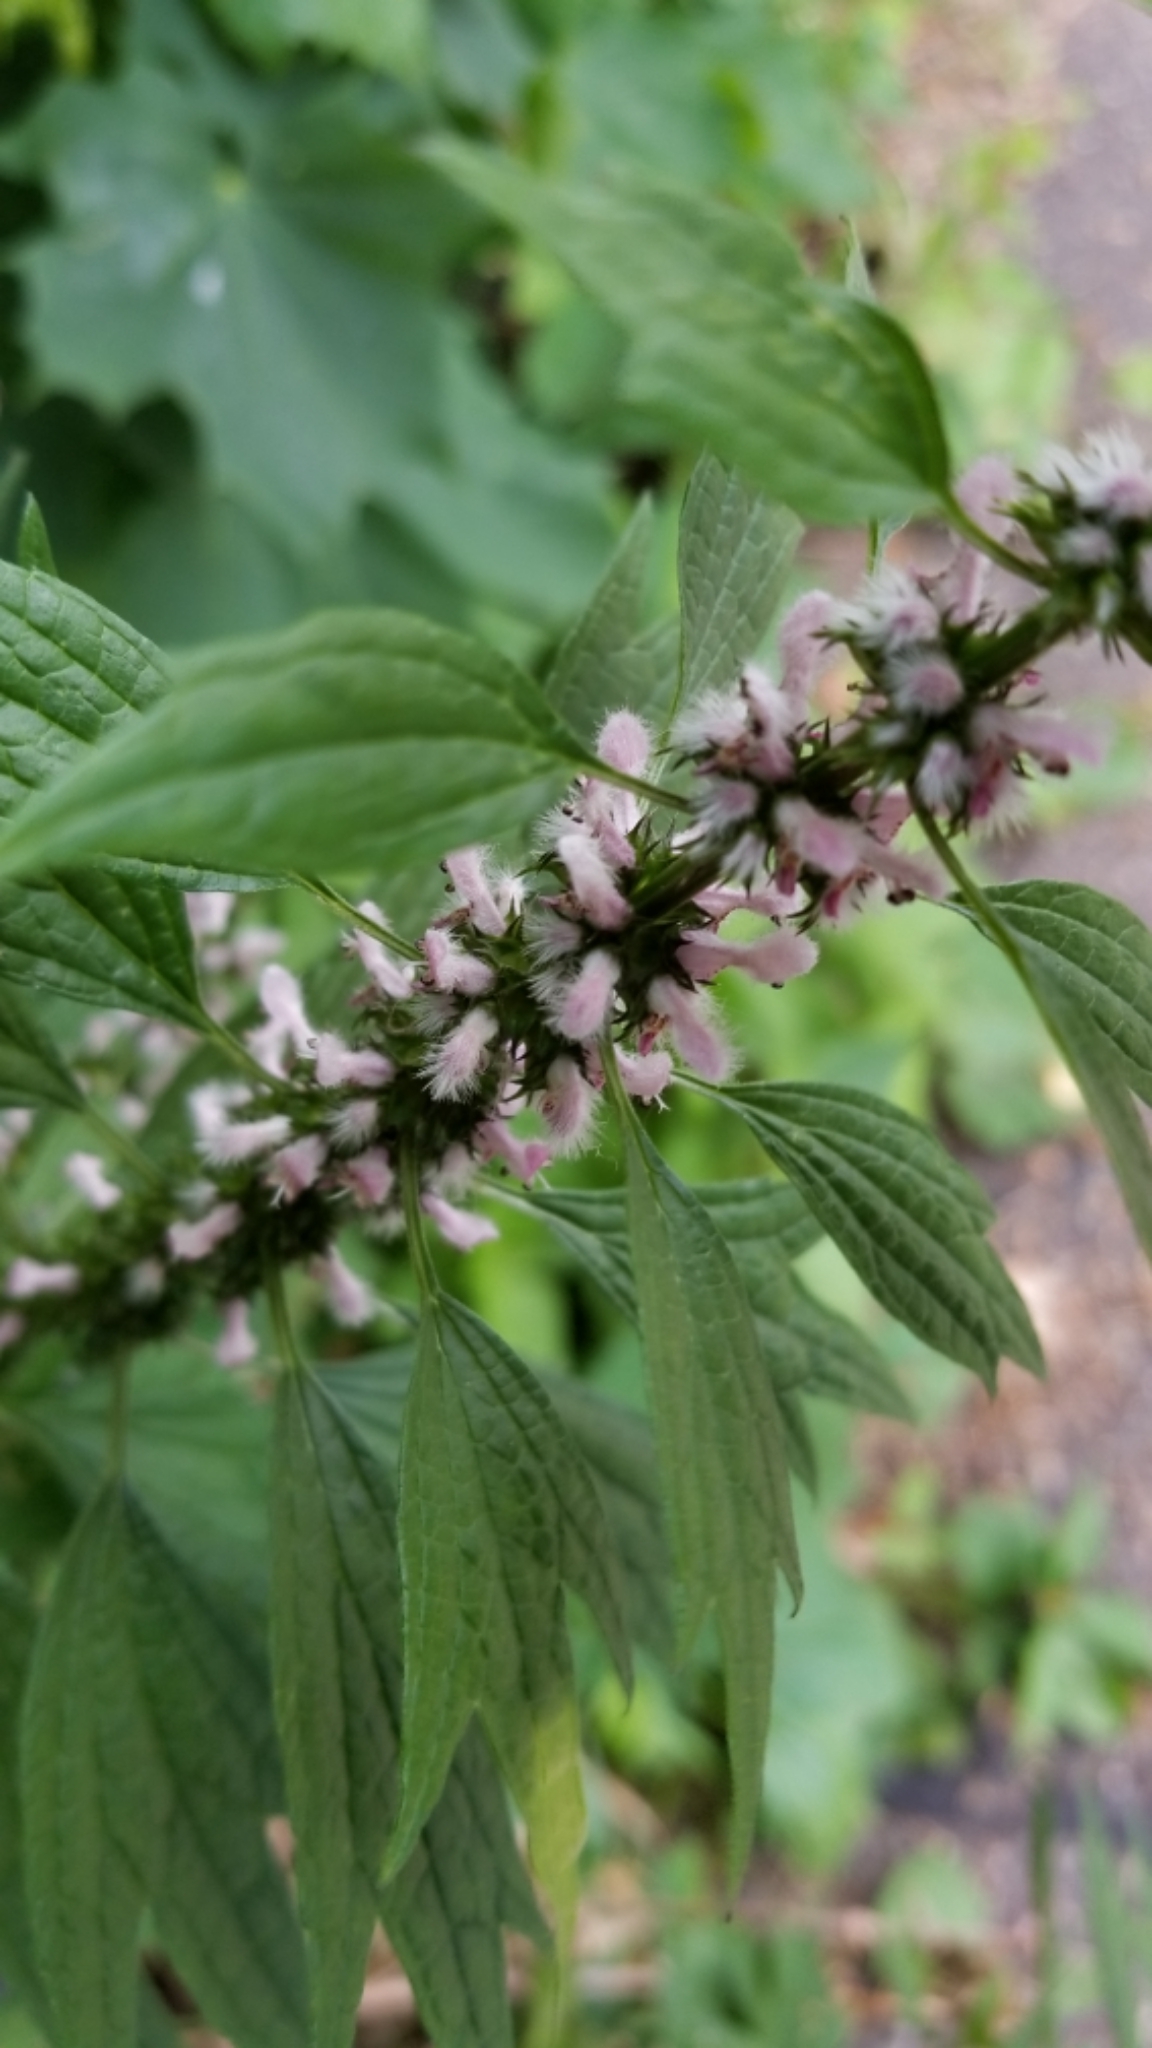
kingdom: Plantae
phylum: Tracheophyta
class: Magnoliopsida
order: Lamiales
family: Lamiaceae
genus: Leonurus
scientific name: Leonurus cardiaca
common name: Motherwort
